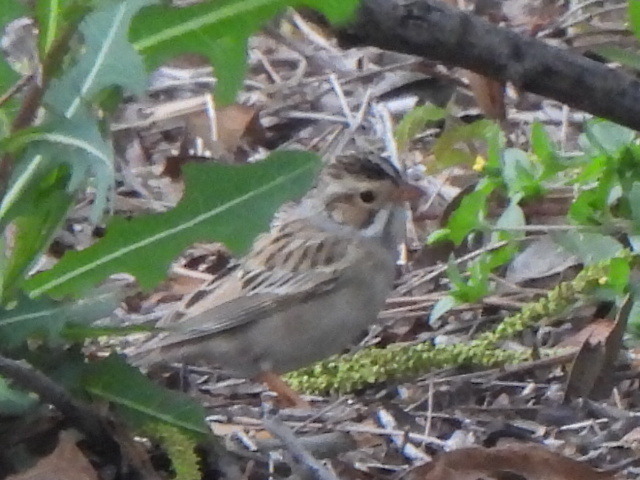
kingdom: Animalia
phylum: Chordata
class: Aves
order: Passeriformes
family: Passerellidae
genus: Spizella
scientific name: Spizella pallida
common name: Clay-colored sparrow
